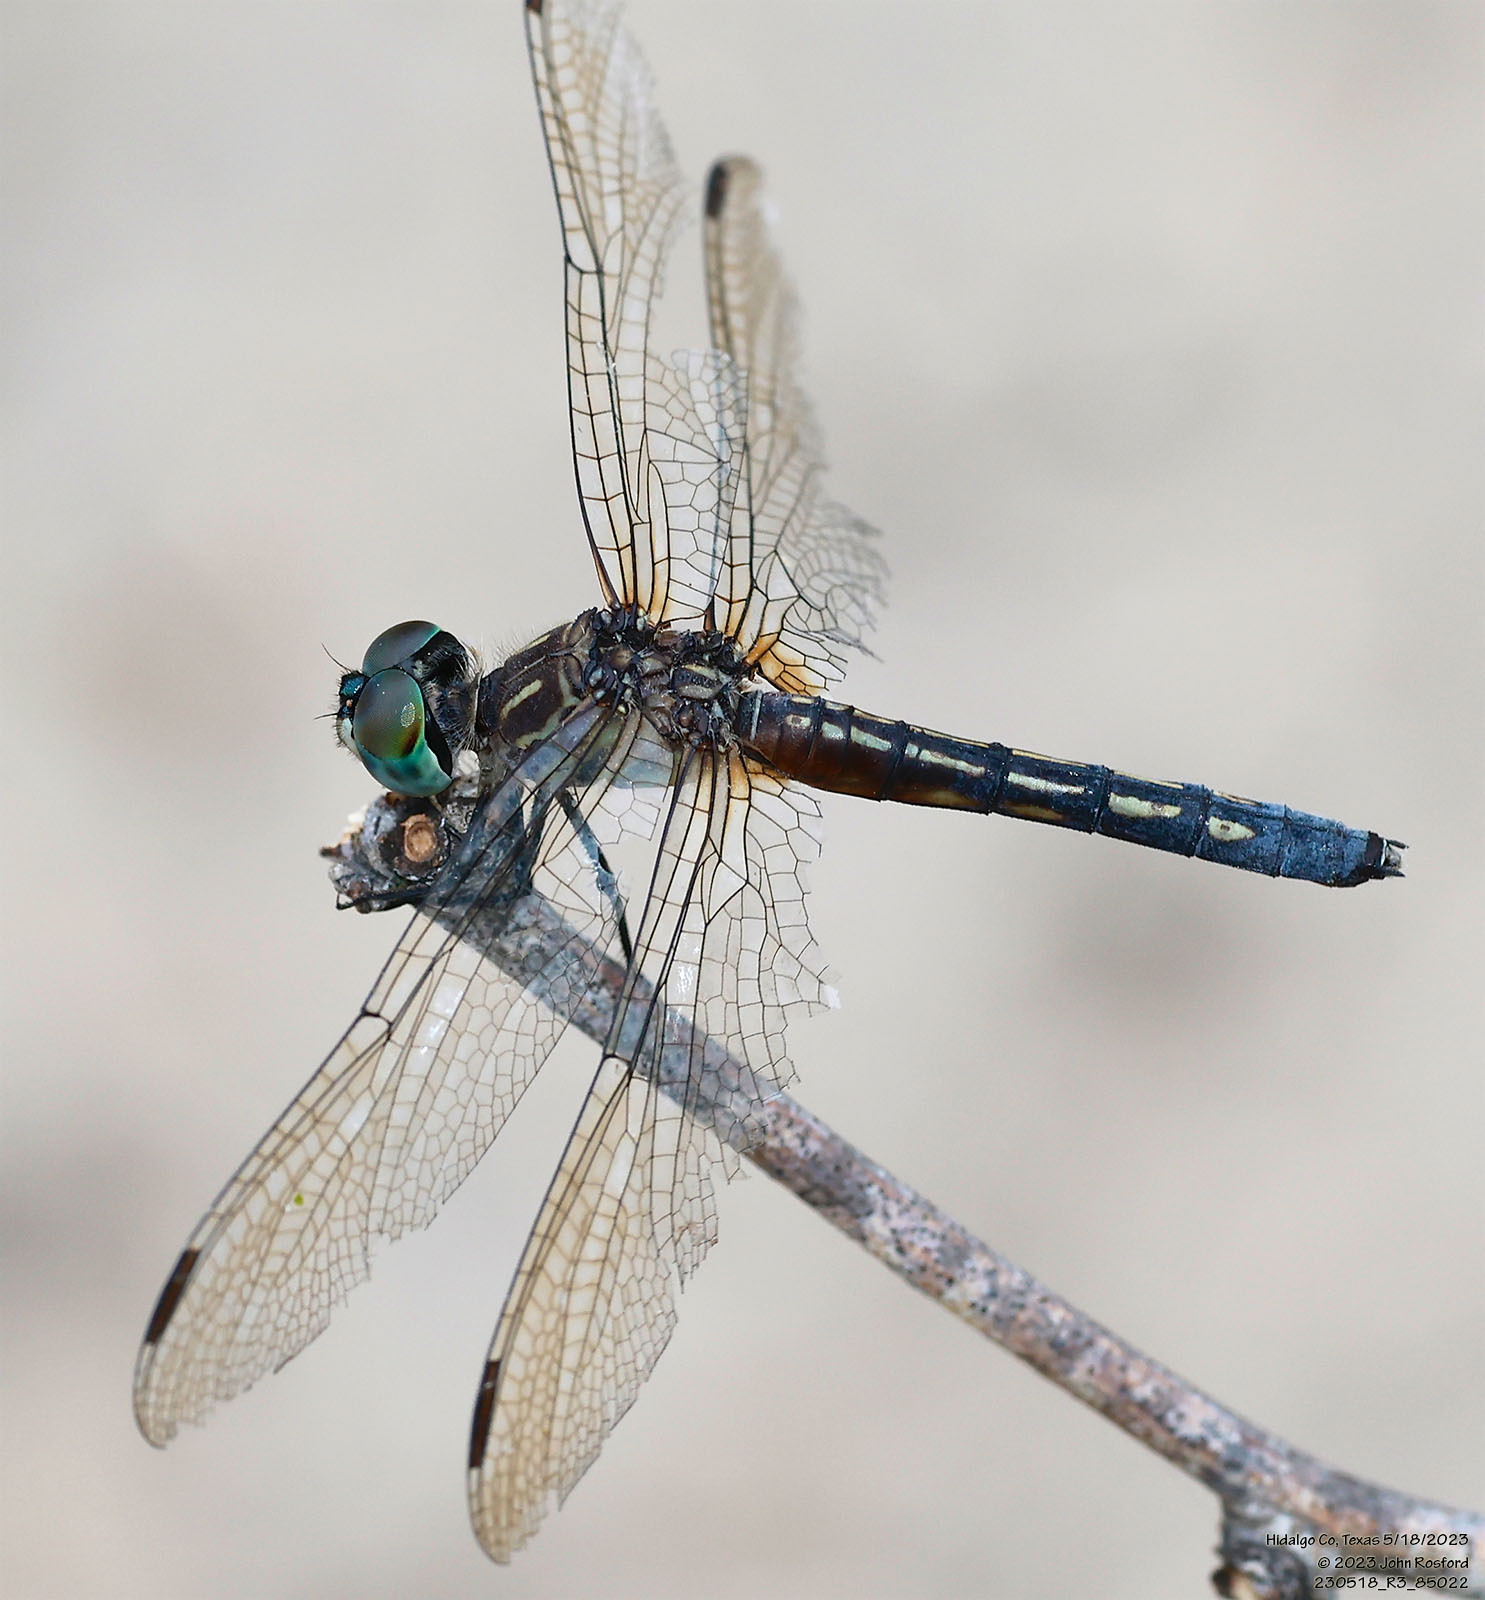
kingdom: Animalia
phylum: Arthropoda
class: Insecta
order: Odonata
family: Libellulidae
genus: Pachydiplax
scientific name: Pachydiplax longipennis
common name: Blue dasher
